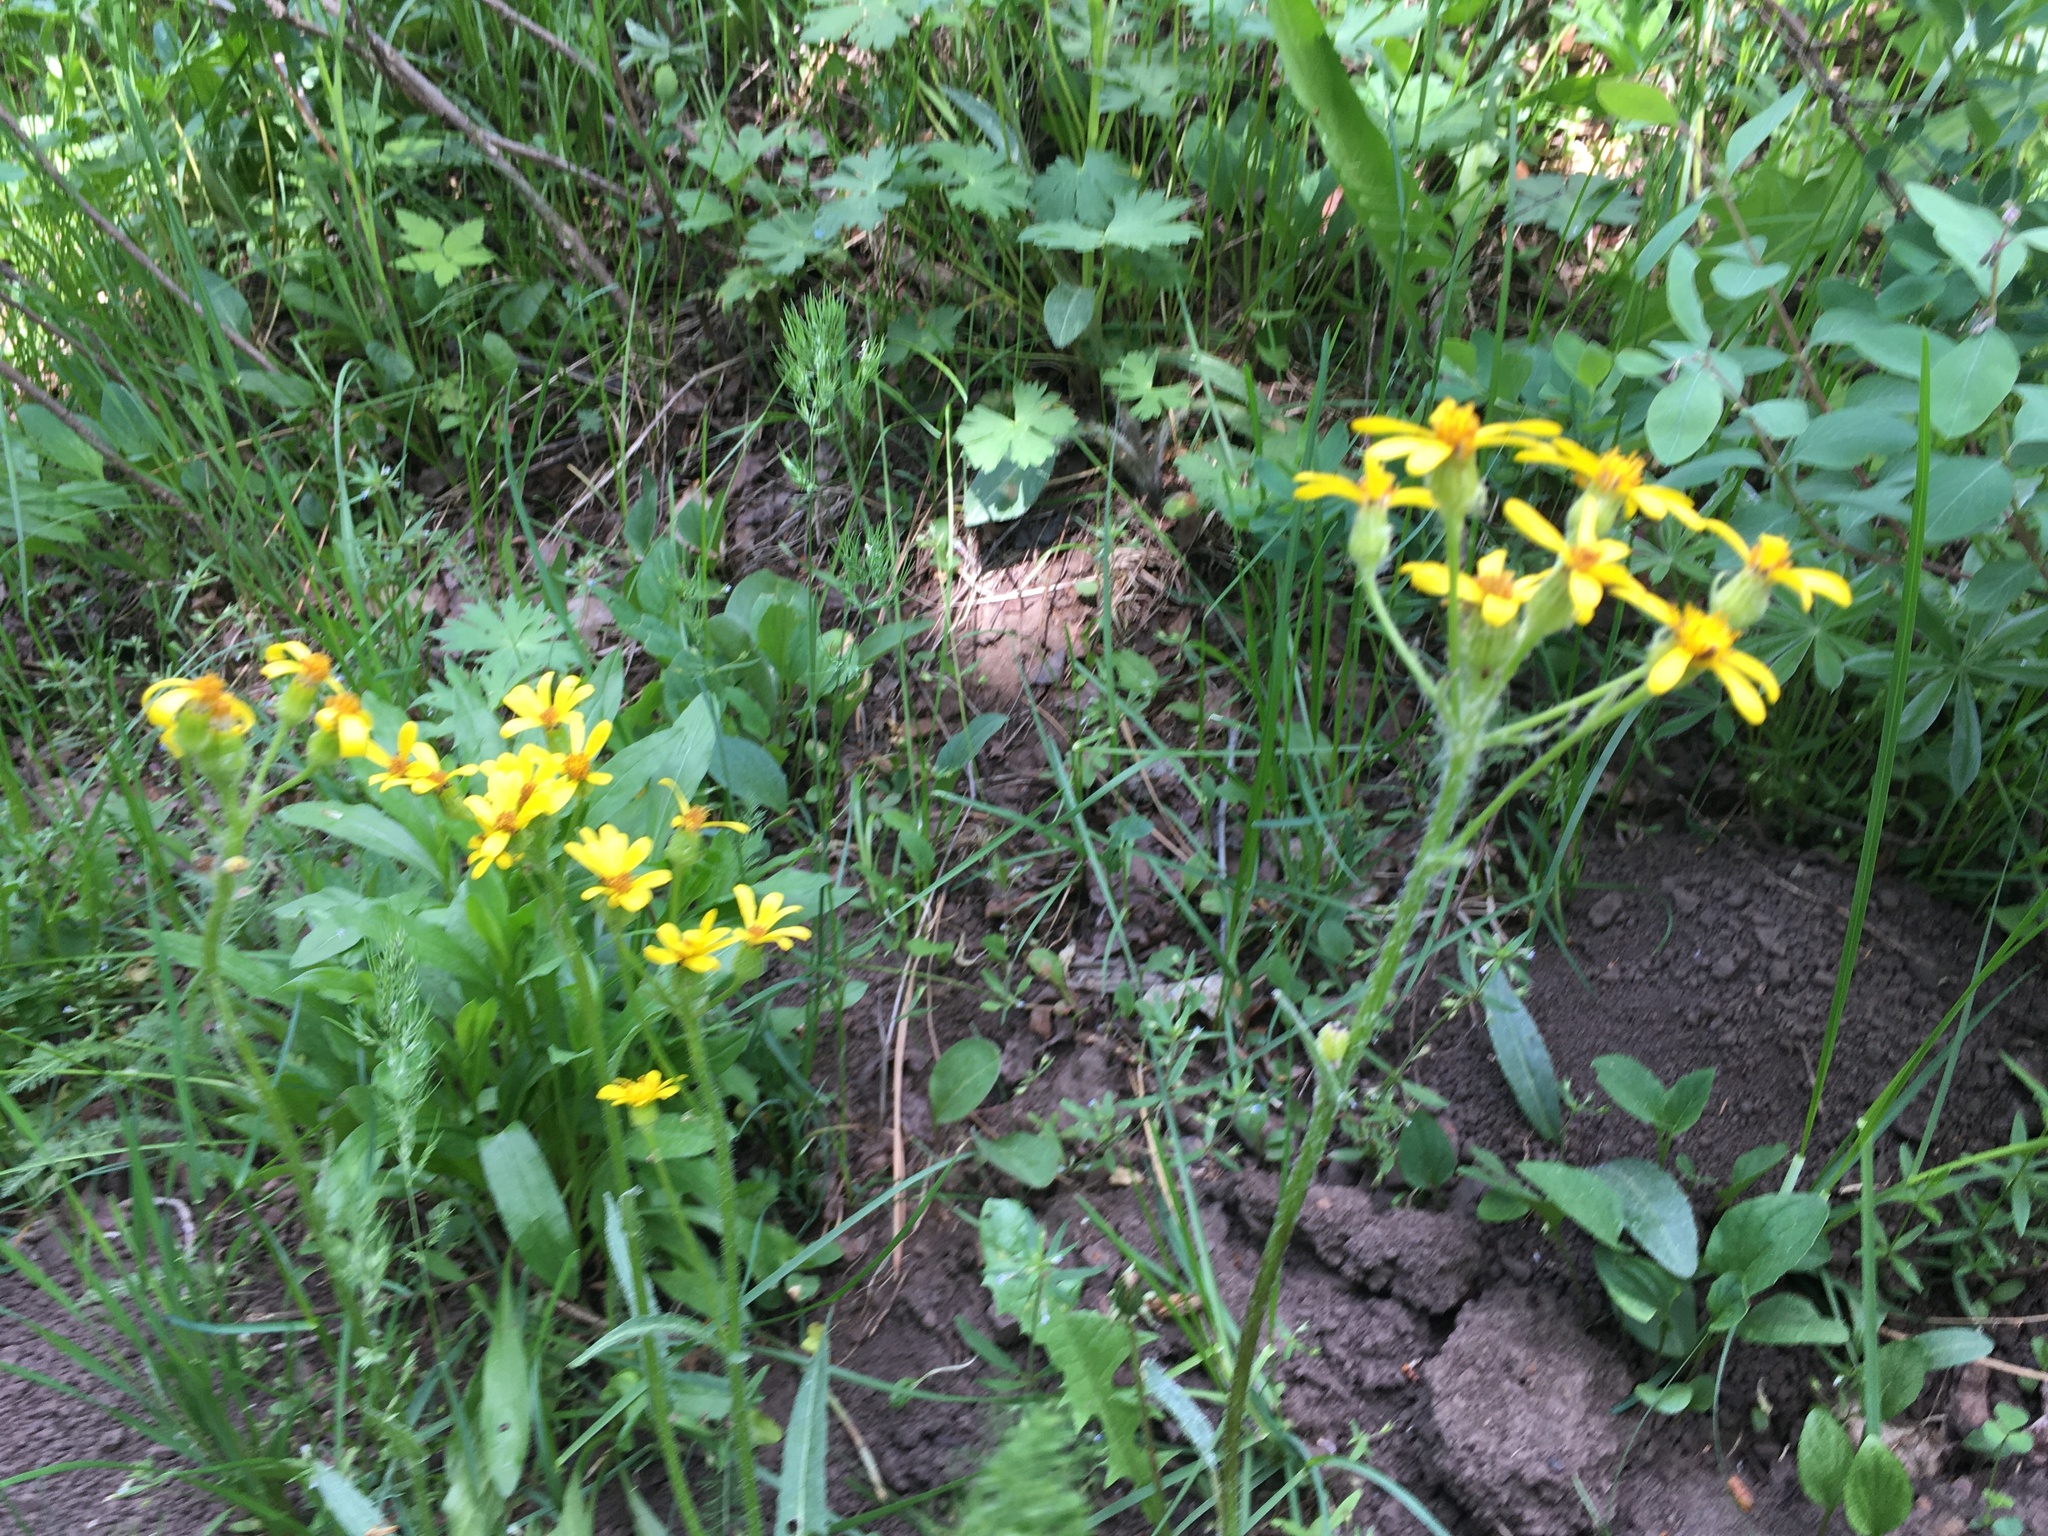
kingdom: Plantae
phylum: Tracheophyta
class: Magnoliopsida
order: Asterales
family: Asteraceae
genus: Senecio
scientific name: Senecio integerrimus
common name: Gaugeplant
